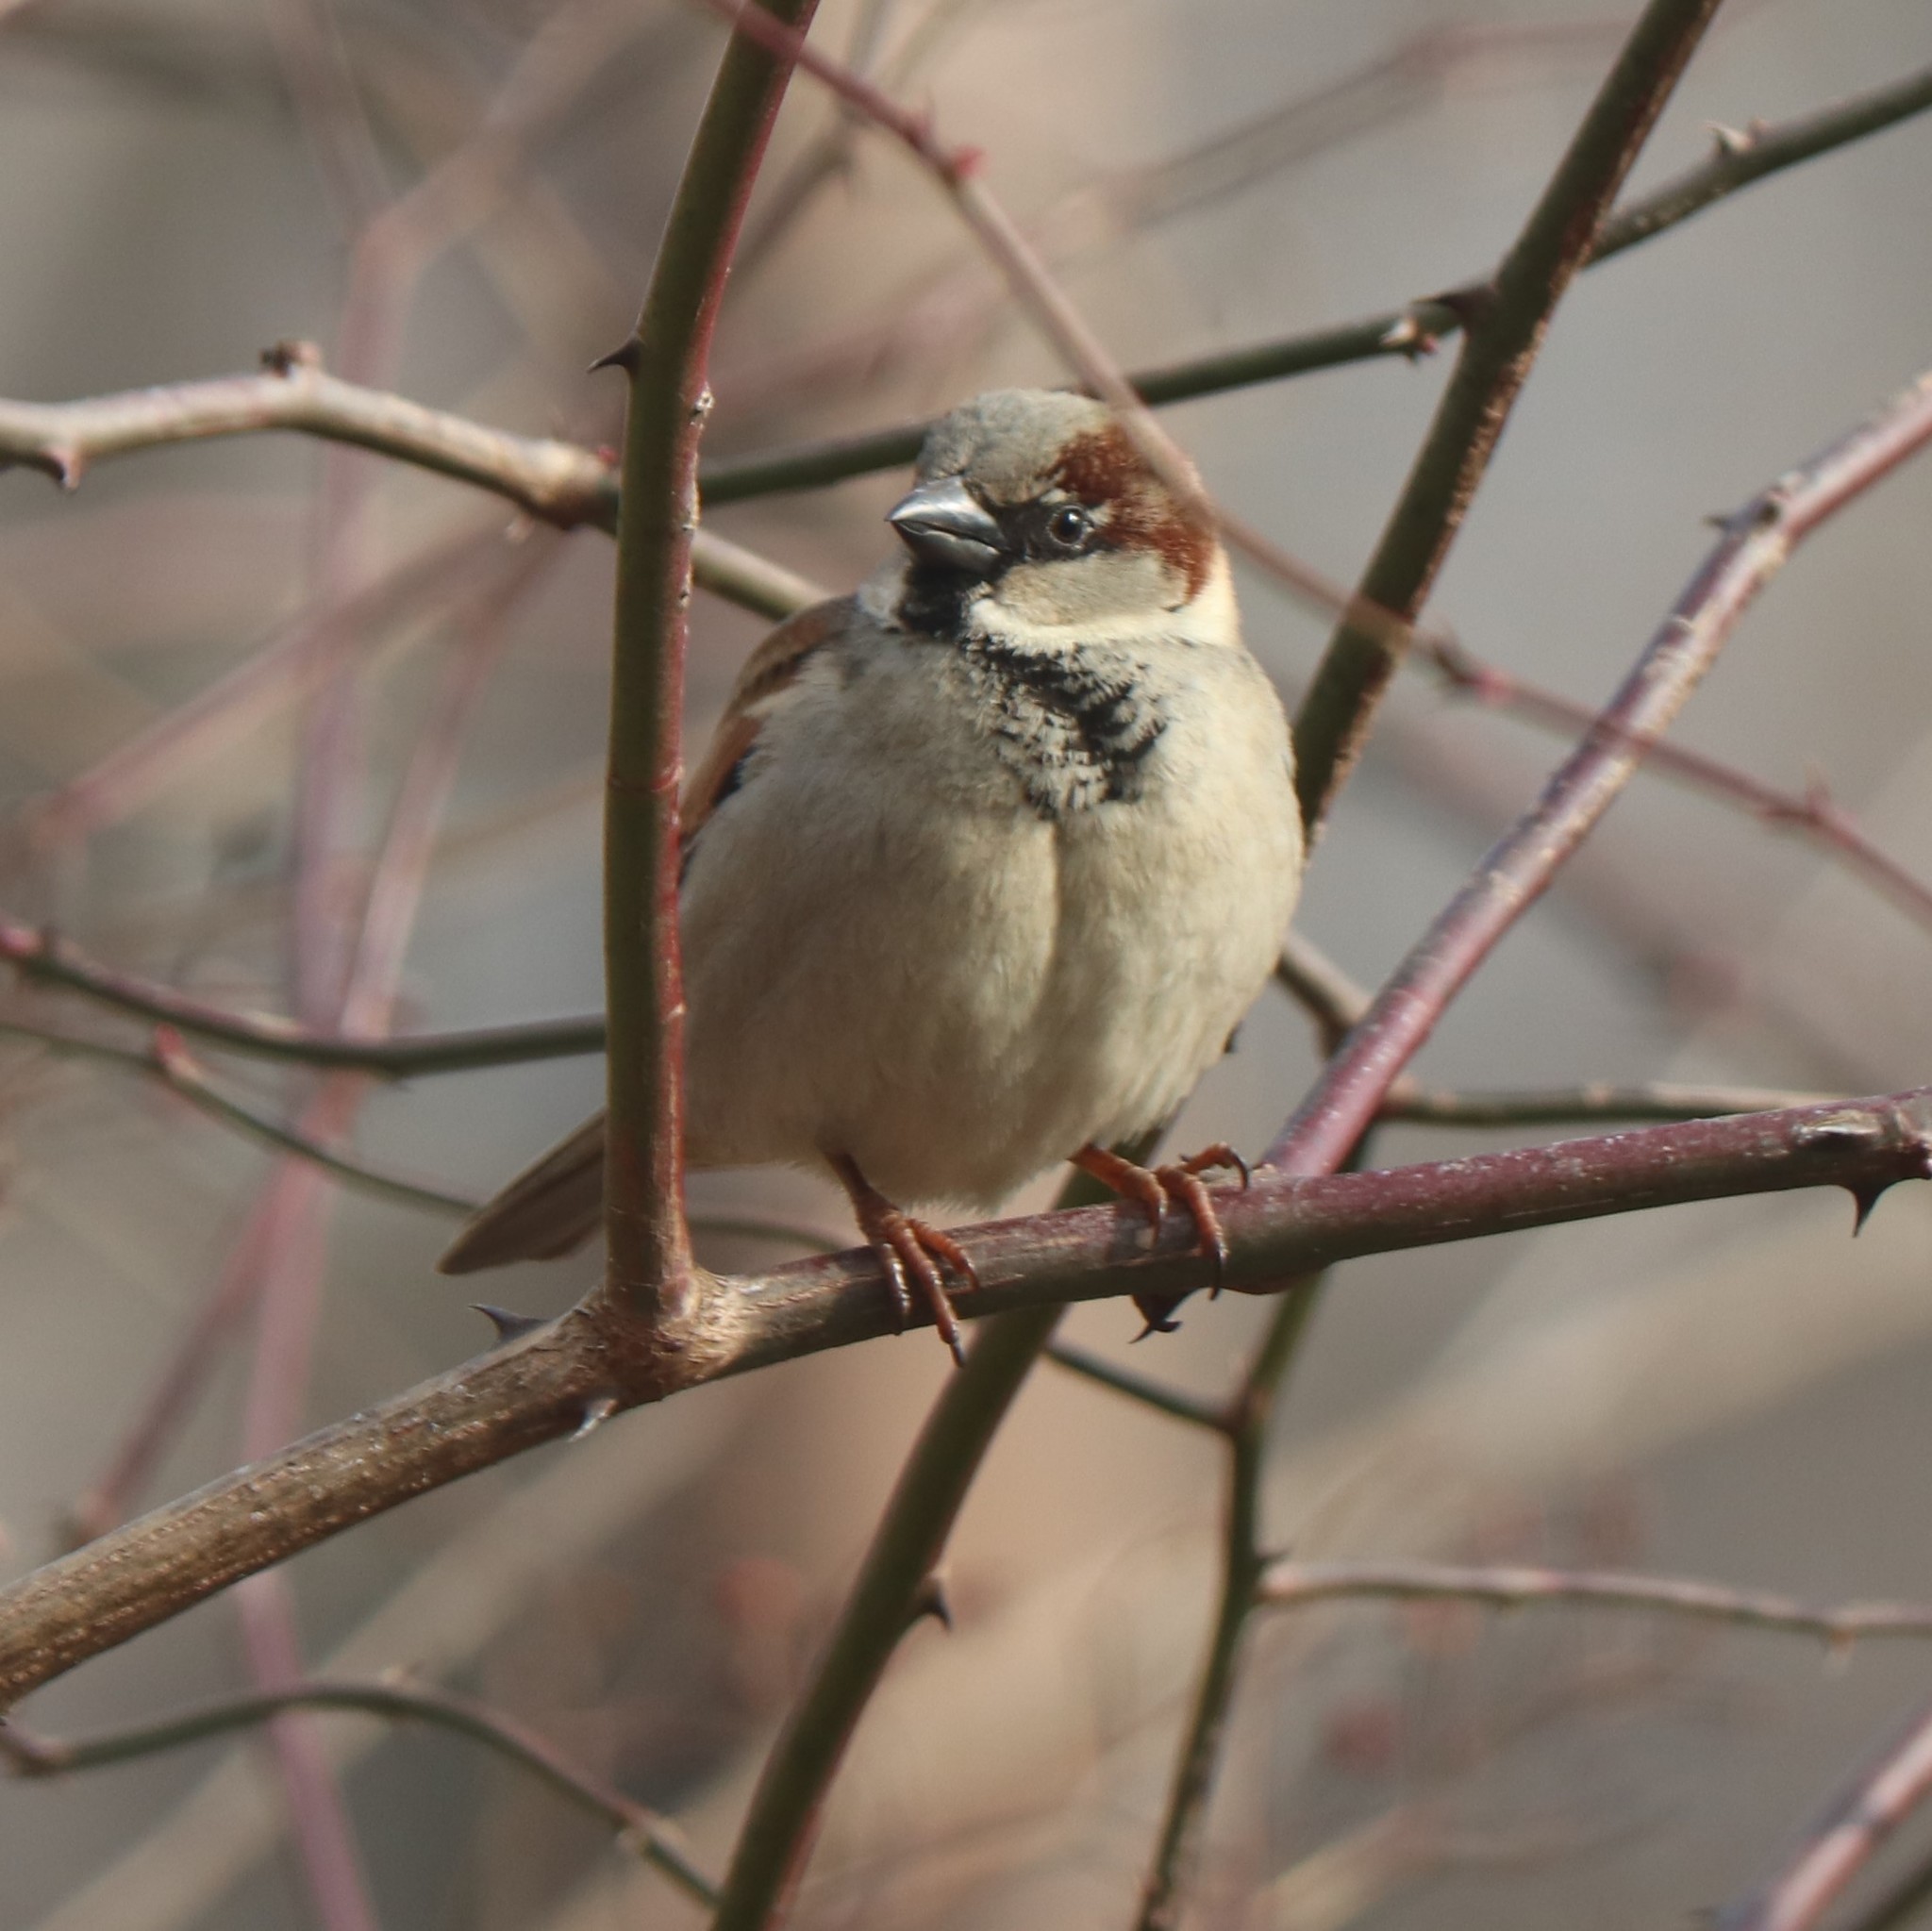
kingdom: Animalia
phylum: Chordata
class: Aves
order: Passeriformes
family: Passeridae
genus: Passer
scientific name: Passer domesticus
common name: House sparrow
